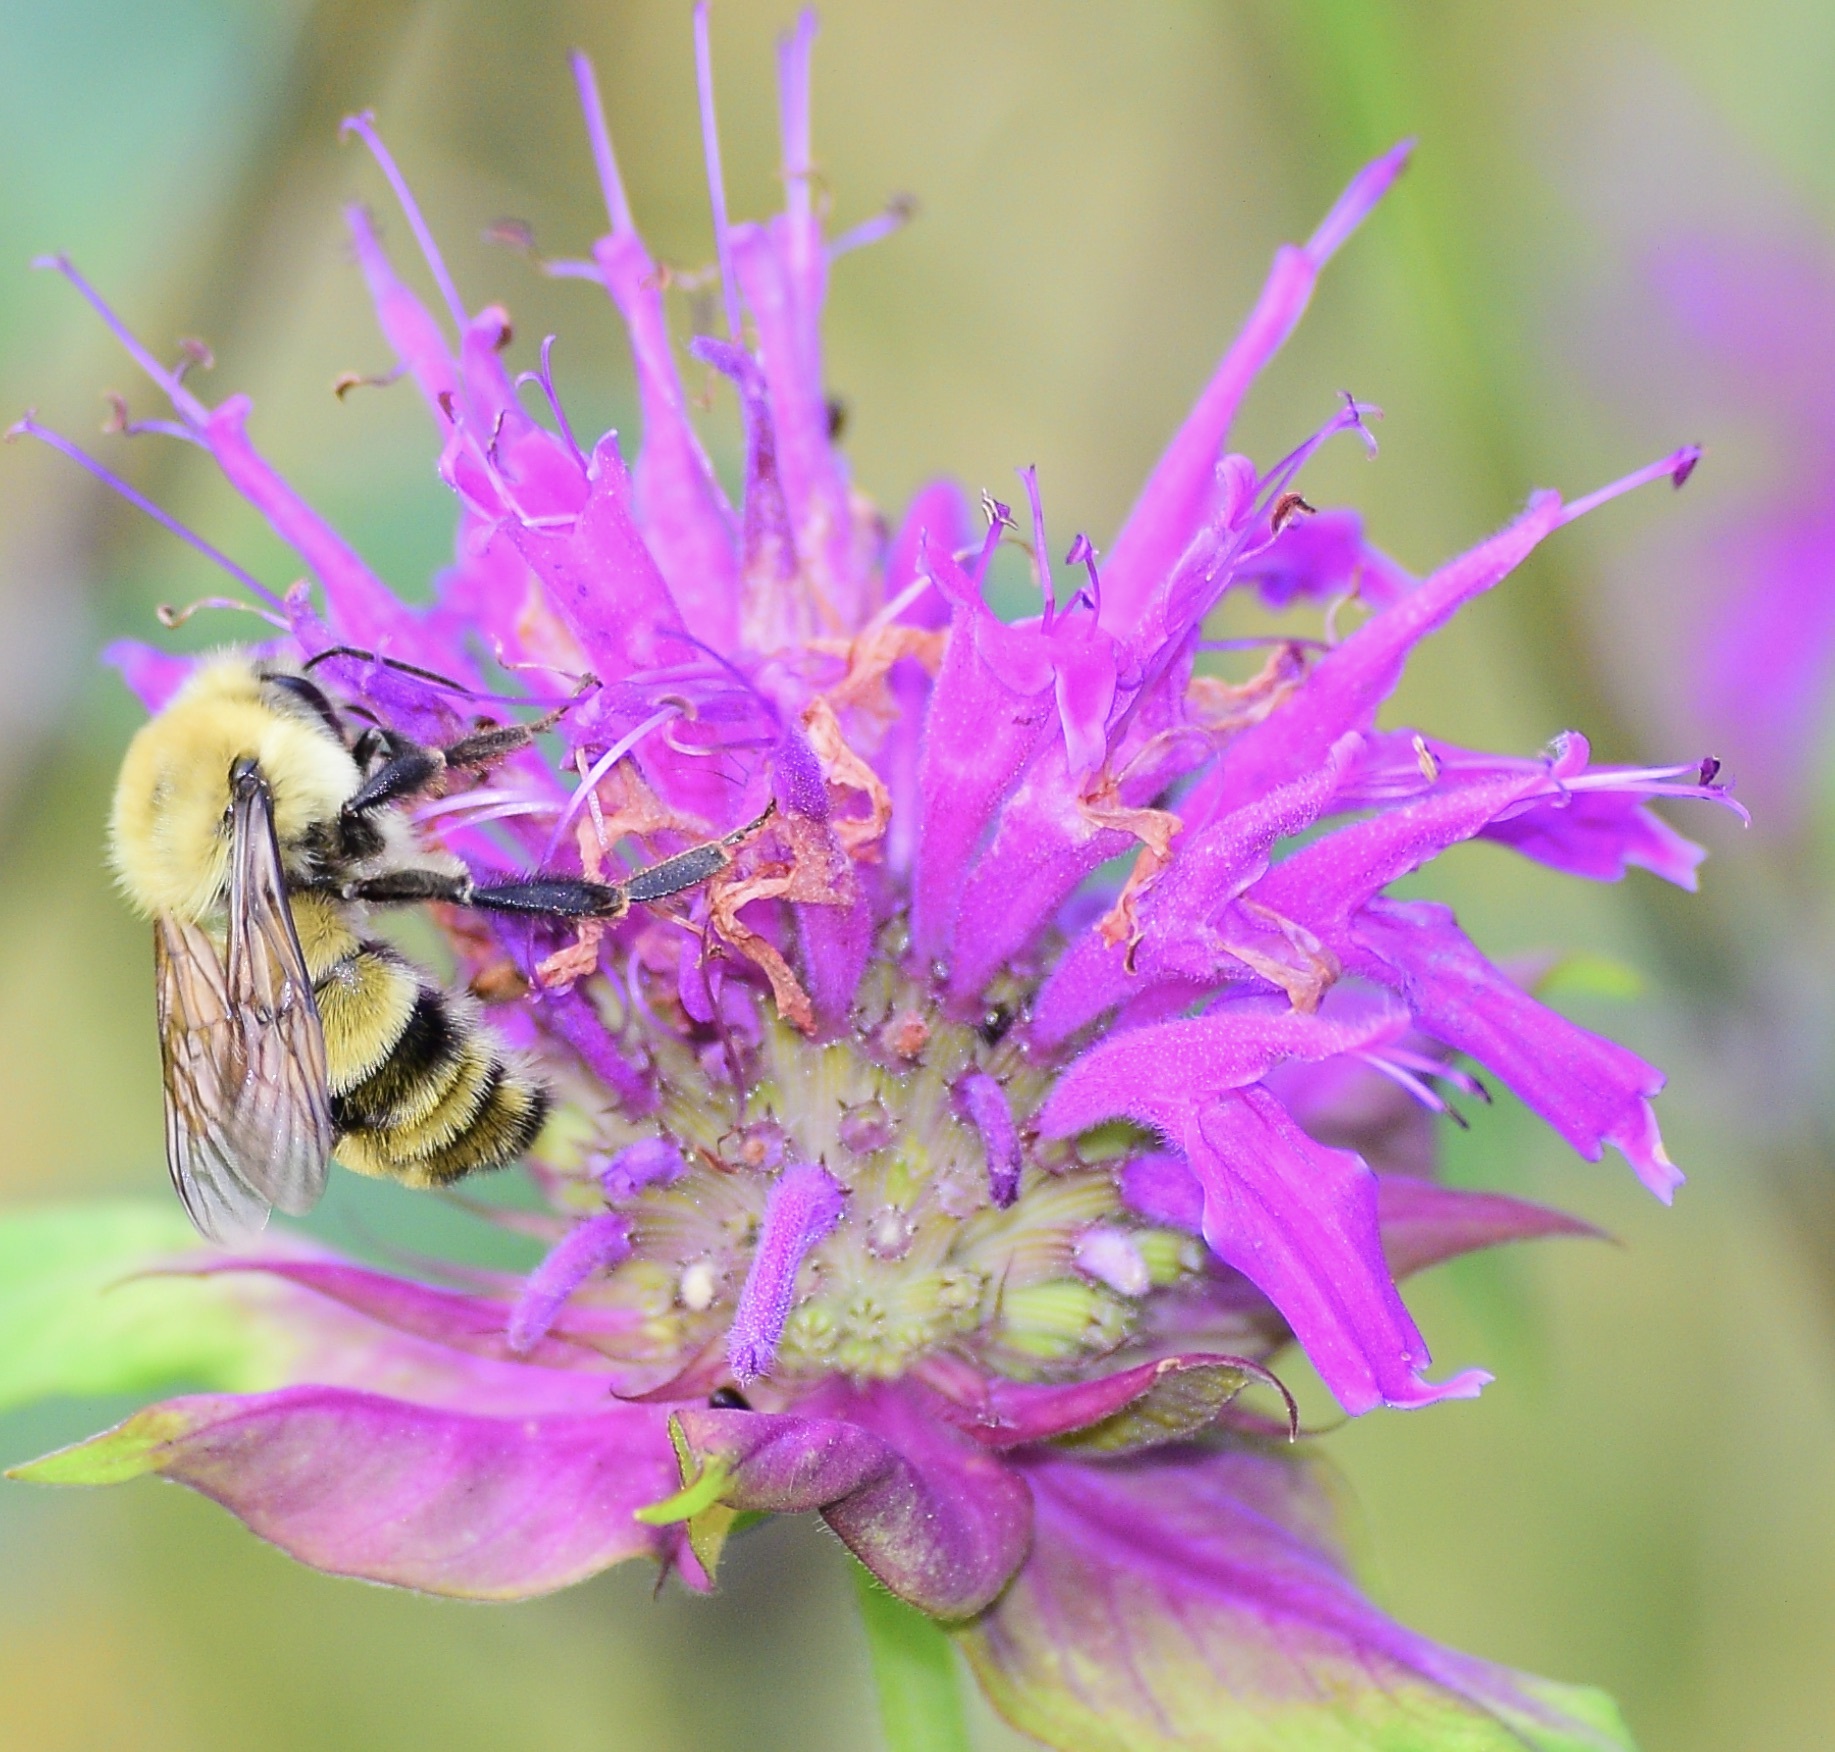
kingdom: Animalia
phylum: Arthropoda
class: Insecta
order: Hymenoptera
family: Apidae
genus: Bombus
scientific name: Bombus bimaculatus
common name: Two-spotted bumble bee
